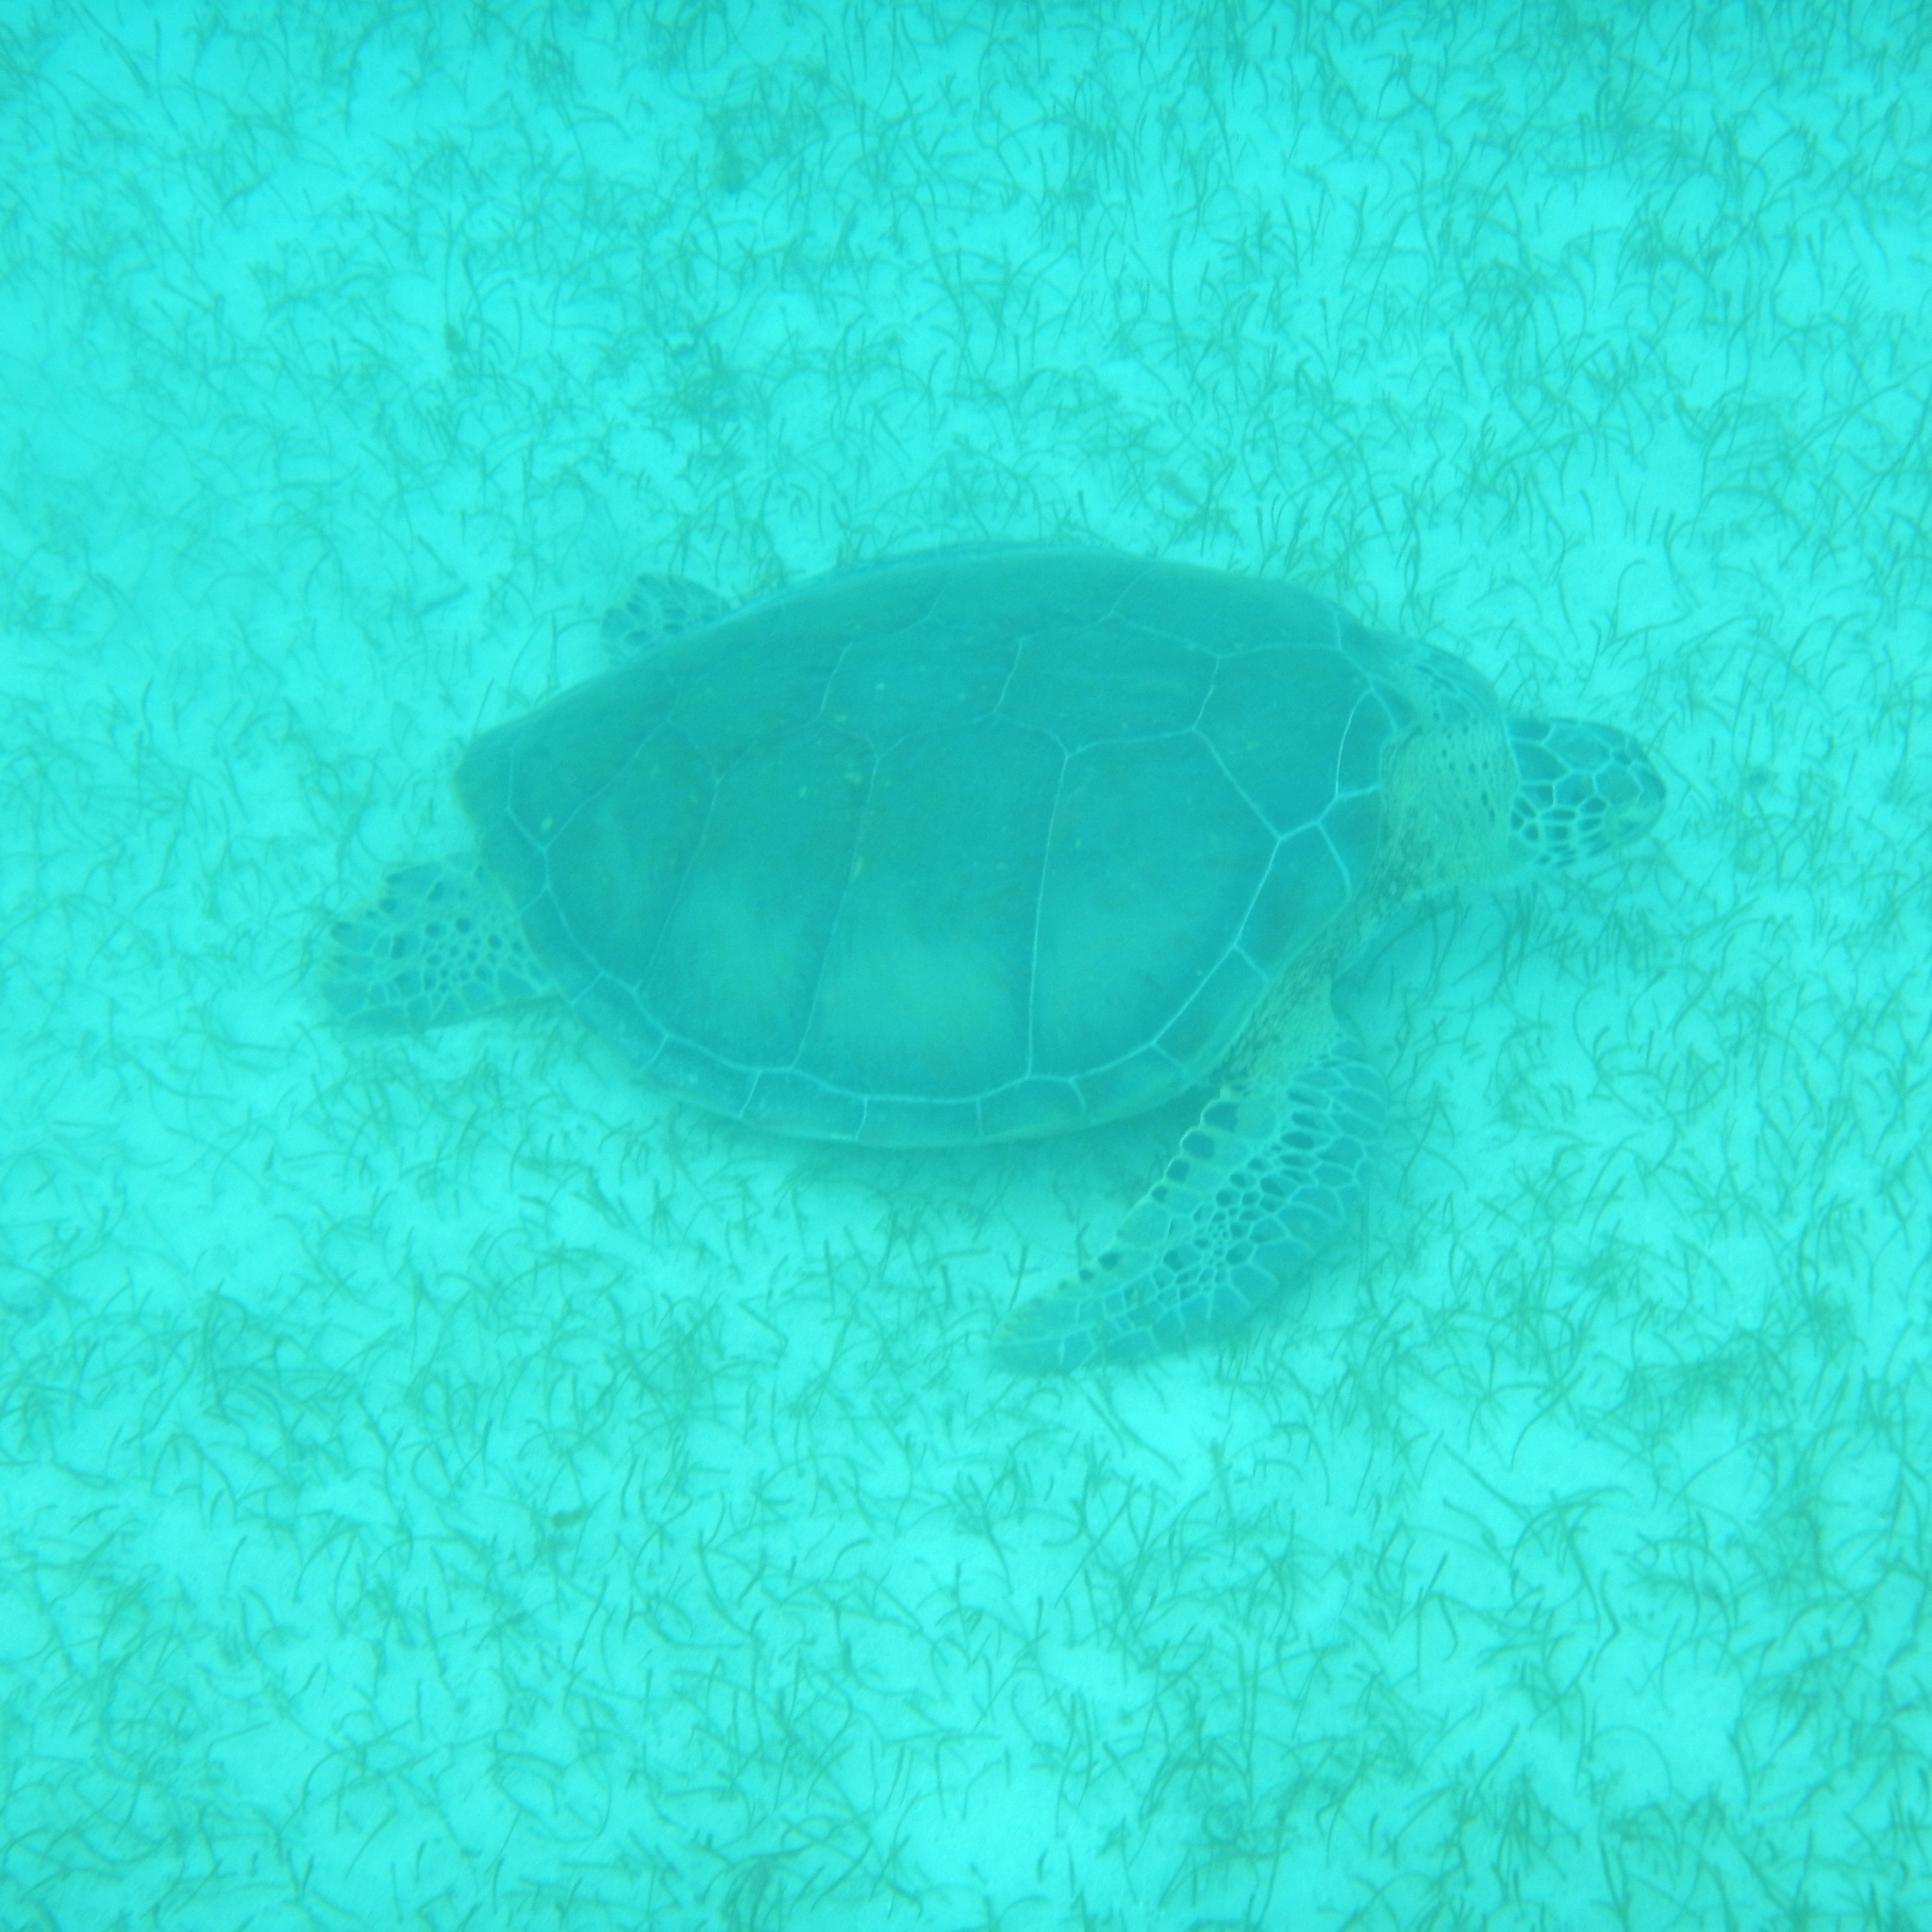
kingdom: Animalia
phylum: Chordata
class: Testudines
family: Cheloniidae
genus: Chelonia
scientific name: Chelonia mydas
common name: Green turtle
